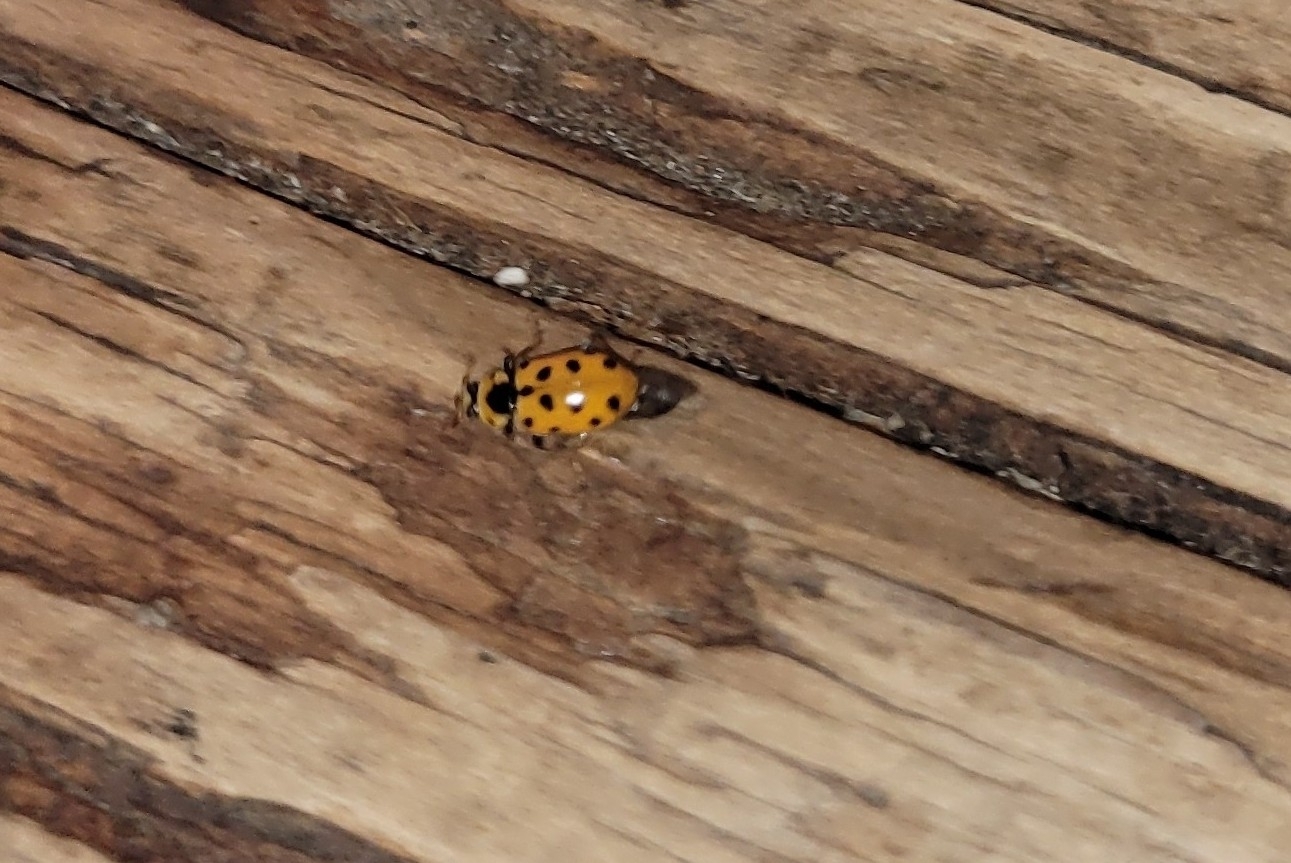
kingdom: Animalia
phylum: Arthropoda
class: Insecta
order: Coleoptera
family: Coccinellidae
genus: Hippodamia
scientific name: Hippodamia tredecimpunctata
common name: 13-spot ladybird
